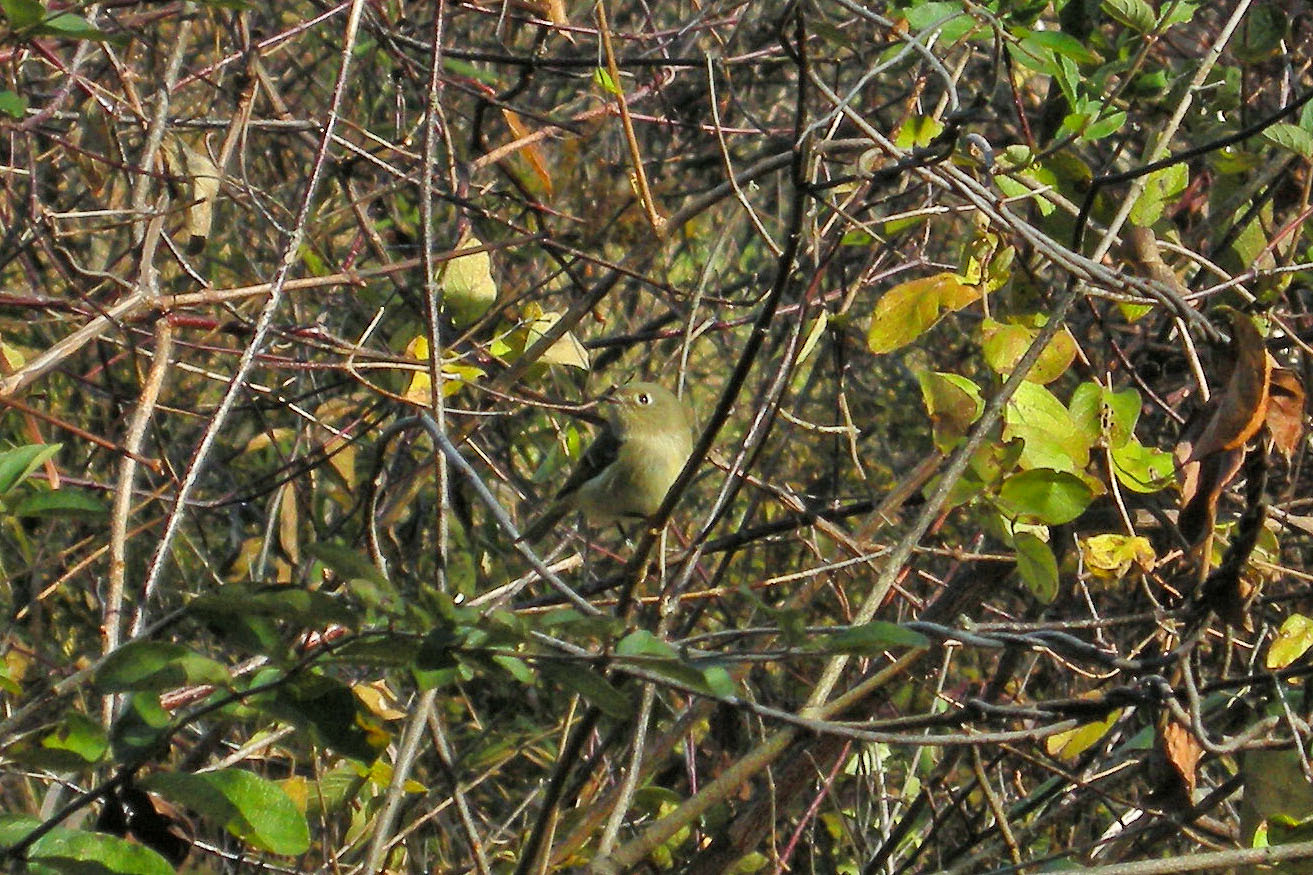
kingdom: Animalia
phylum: Chordata
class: Aves
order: Passeriformes
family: Regulidae
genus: Regulus
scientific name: Regulus calendula
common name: Ruby-crowned kinglet
